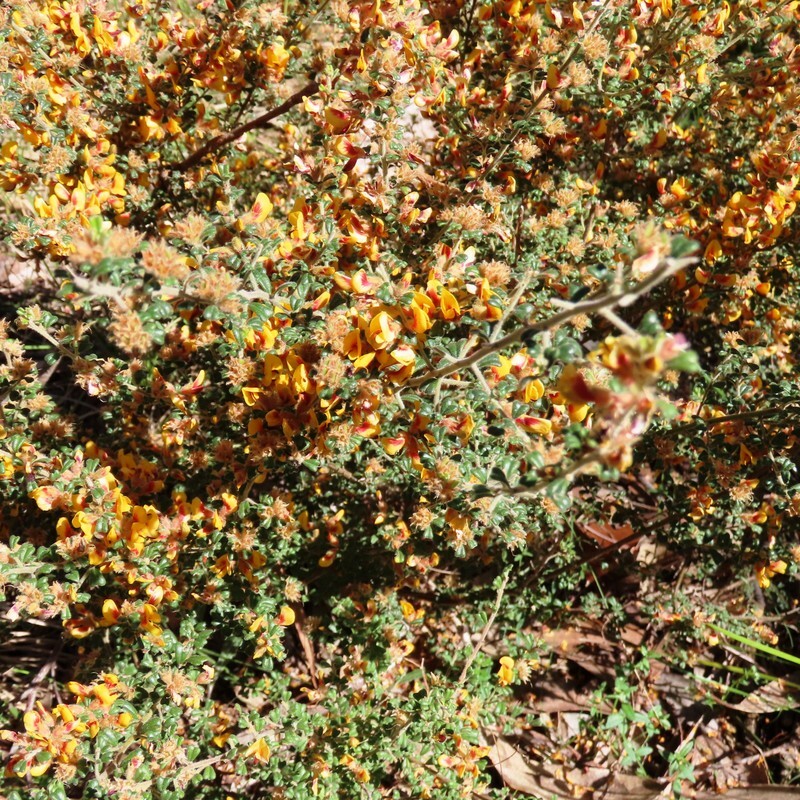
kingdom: Plantae
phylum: Tracheophyta
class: Magnoliopsida
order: Fabales
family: Fabaceae
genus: Pultenaea
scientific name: Pultenaea scabra
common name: Rough bush-pea
